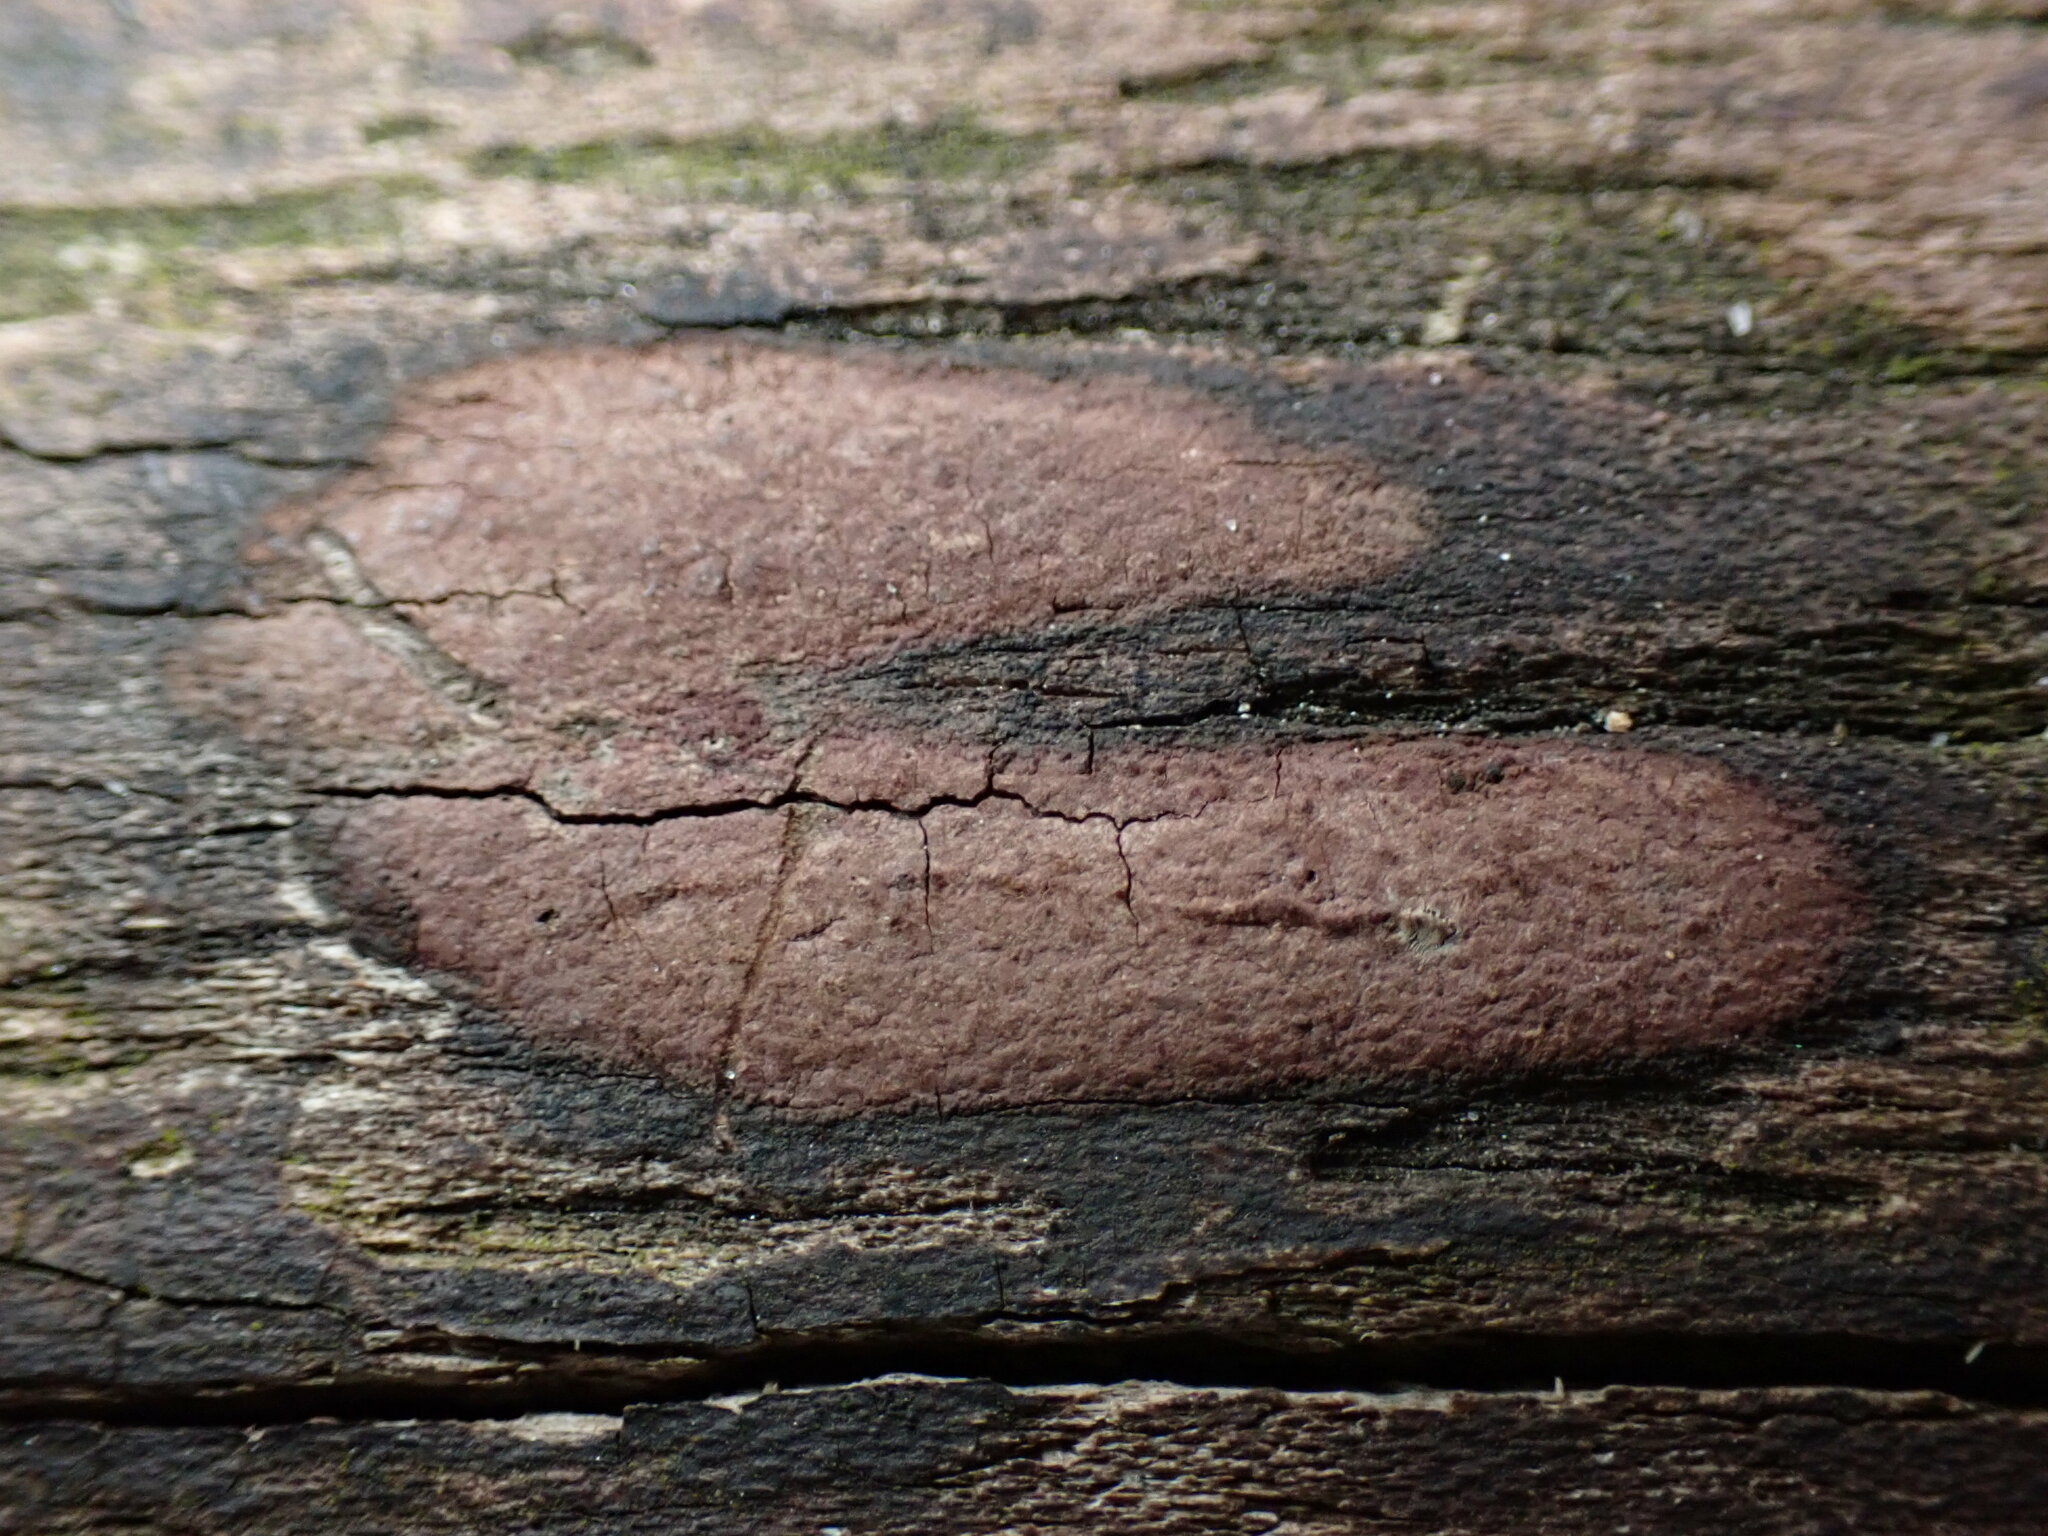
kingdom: Fungi
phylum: Ascomycota
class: Sordariomycetes
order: Xylariales
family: Hypoxylaceae
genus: Hypoxylon
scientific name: Hypoxylon rubiginosum
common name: Rusty woodwart
